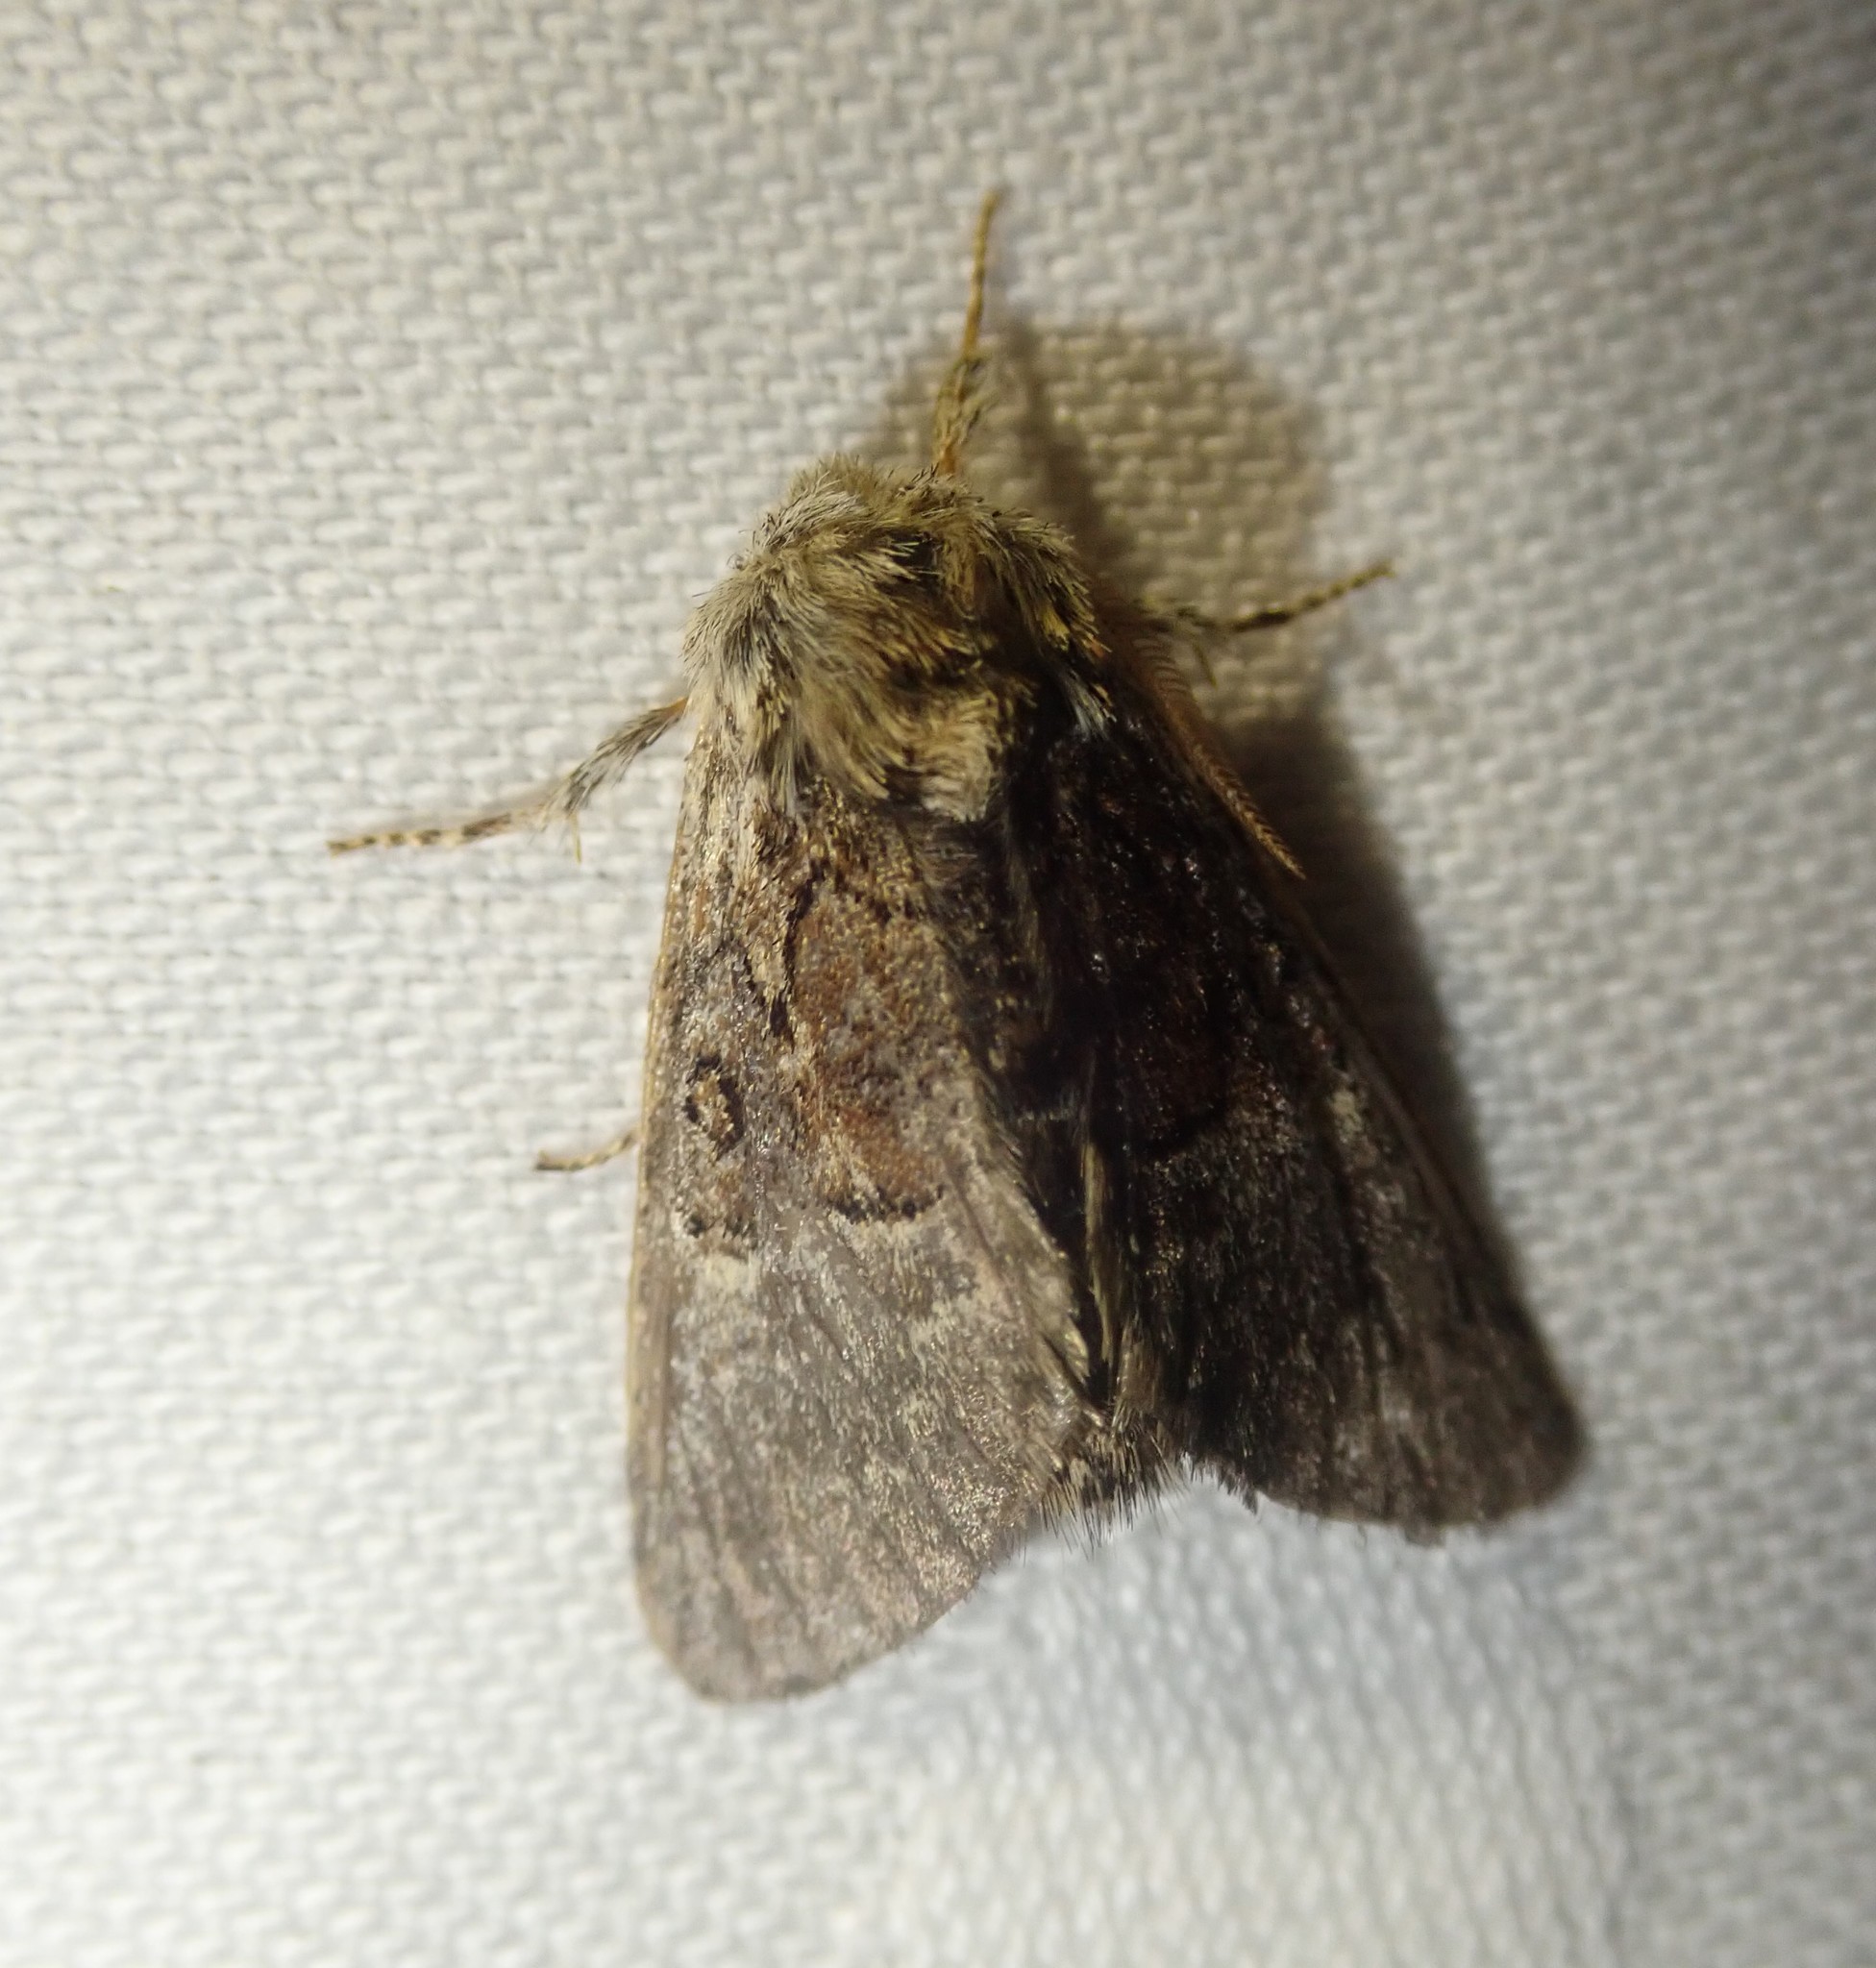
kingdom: Animalia
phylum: Arthropoda
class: Insecta
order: Lepidoptera
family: Noctuidae
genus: Colocasia
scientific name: Colocasia coryli
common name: Nut-tree tussock
